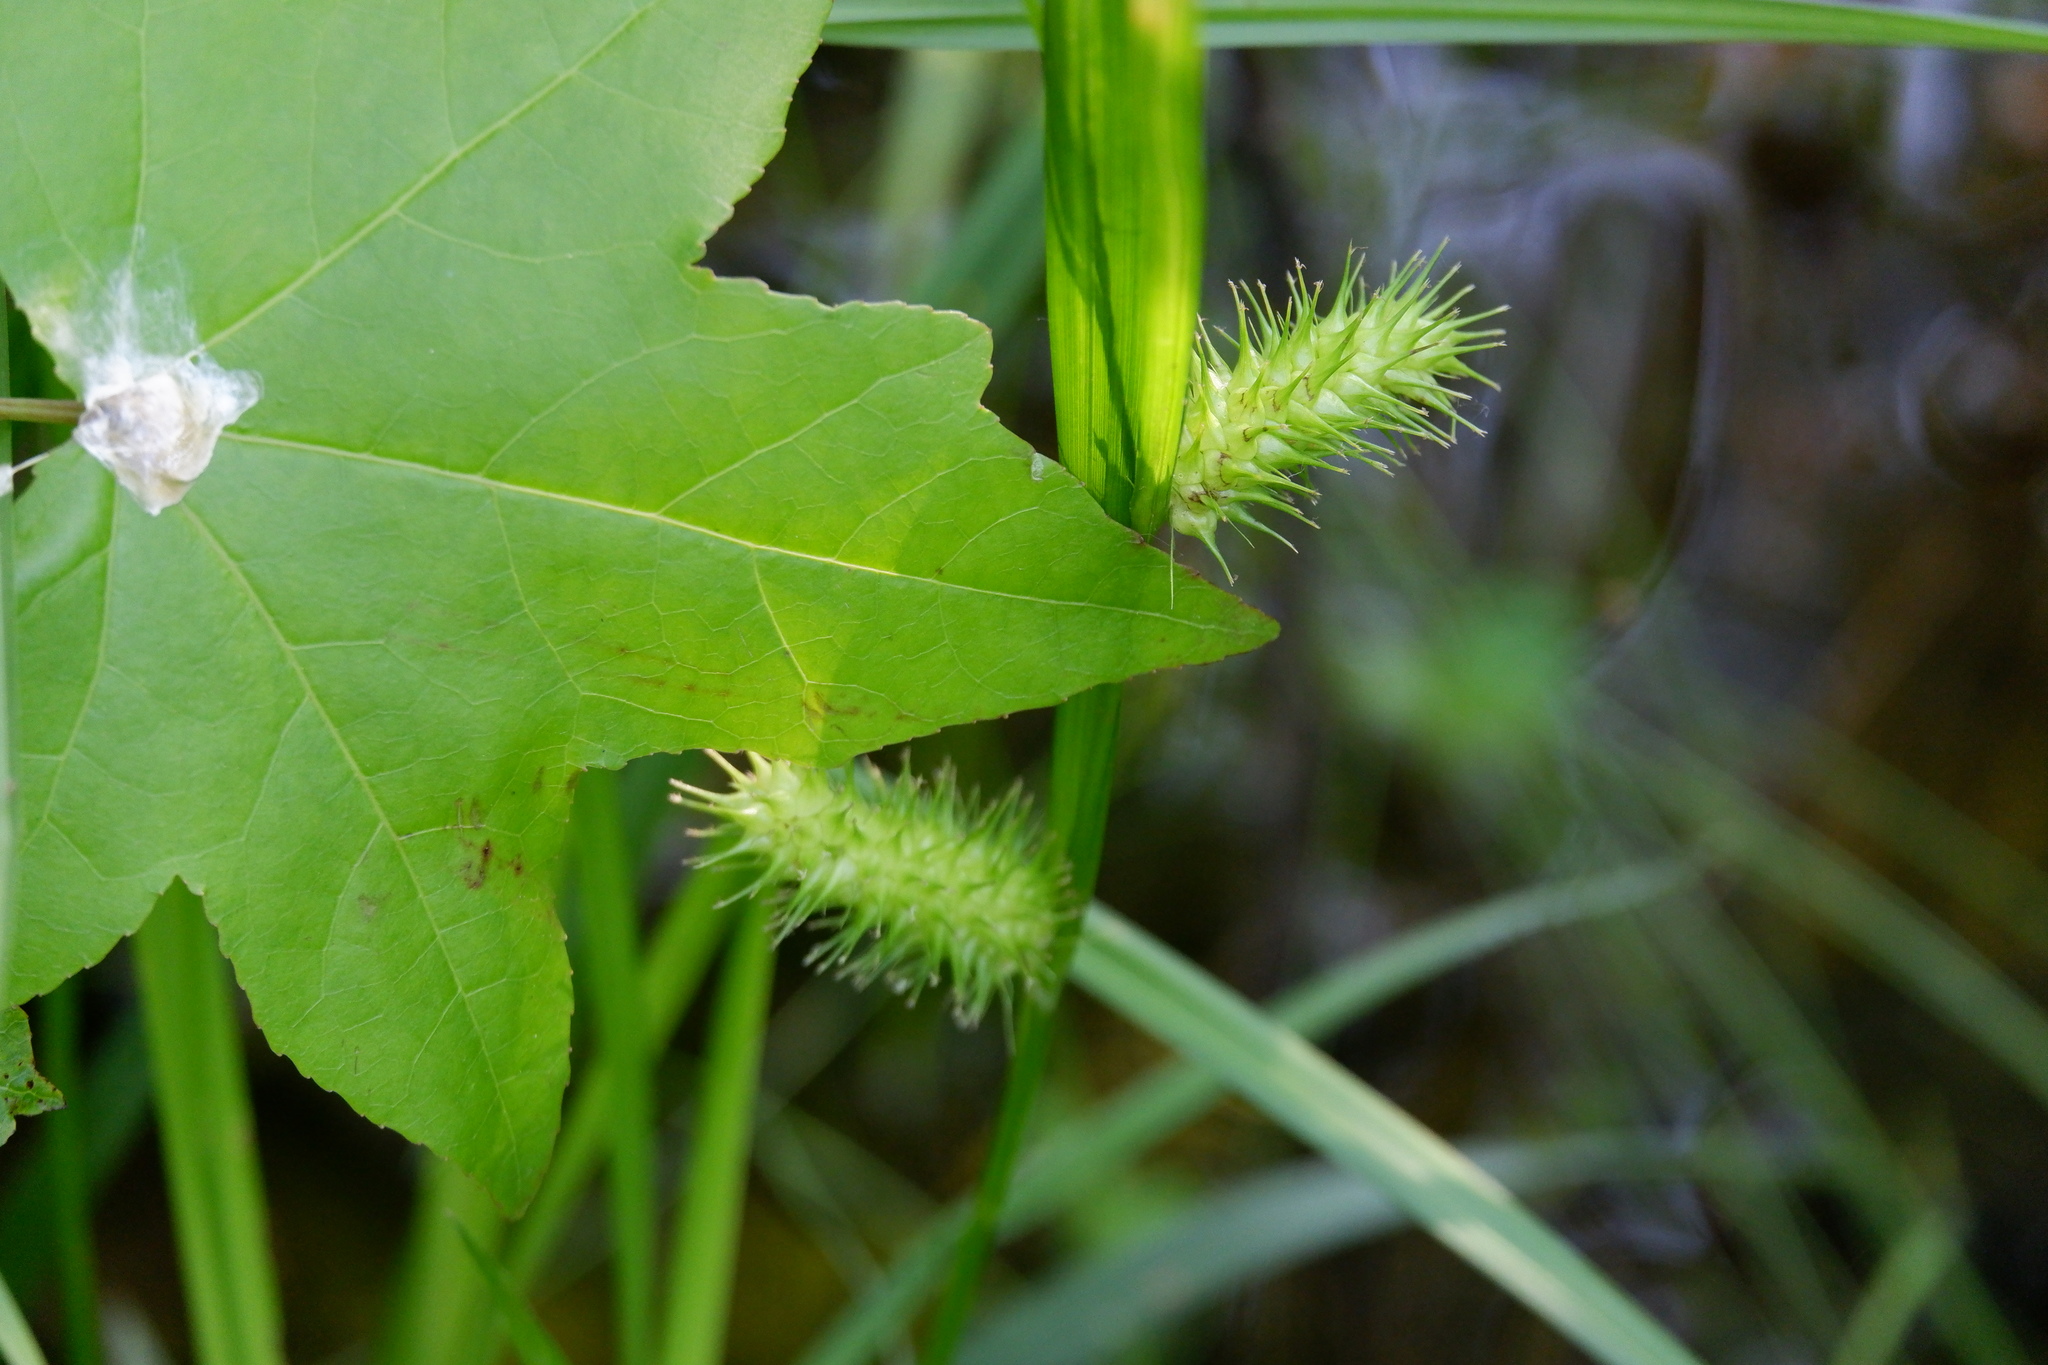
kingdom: Plantae
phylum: Tracheophyta
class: Liliopsida
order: Poales
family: Cyperaceae
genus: Carex
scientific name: Carex lurida
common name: Sallow sedge
